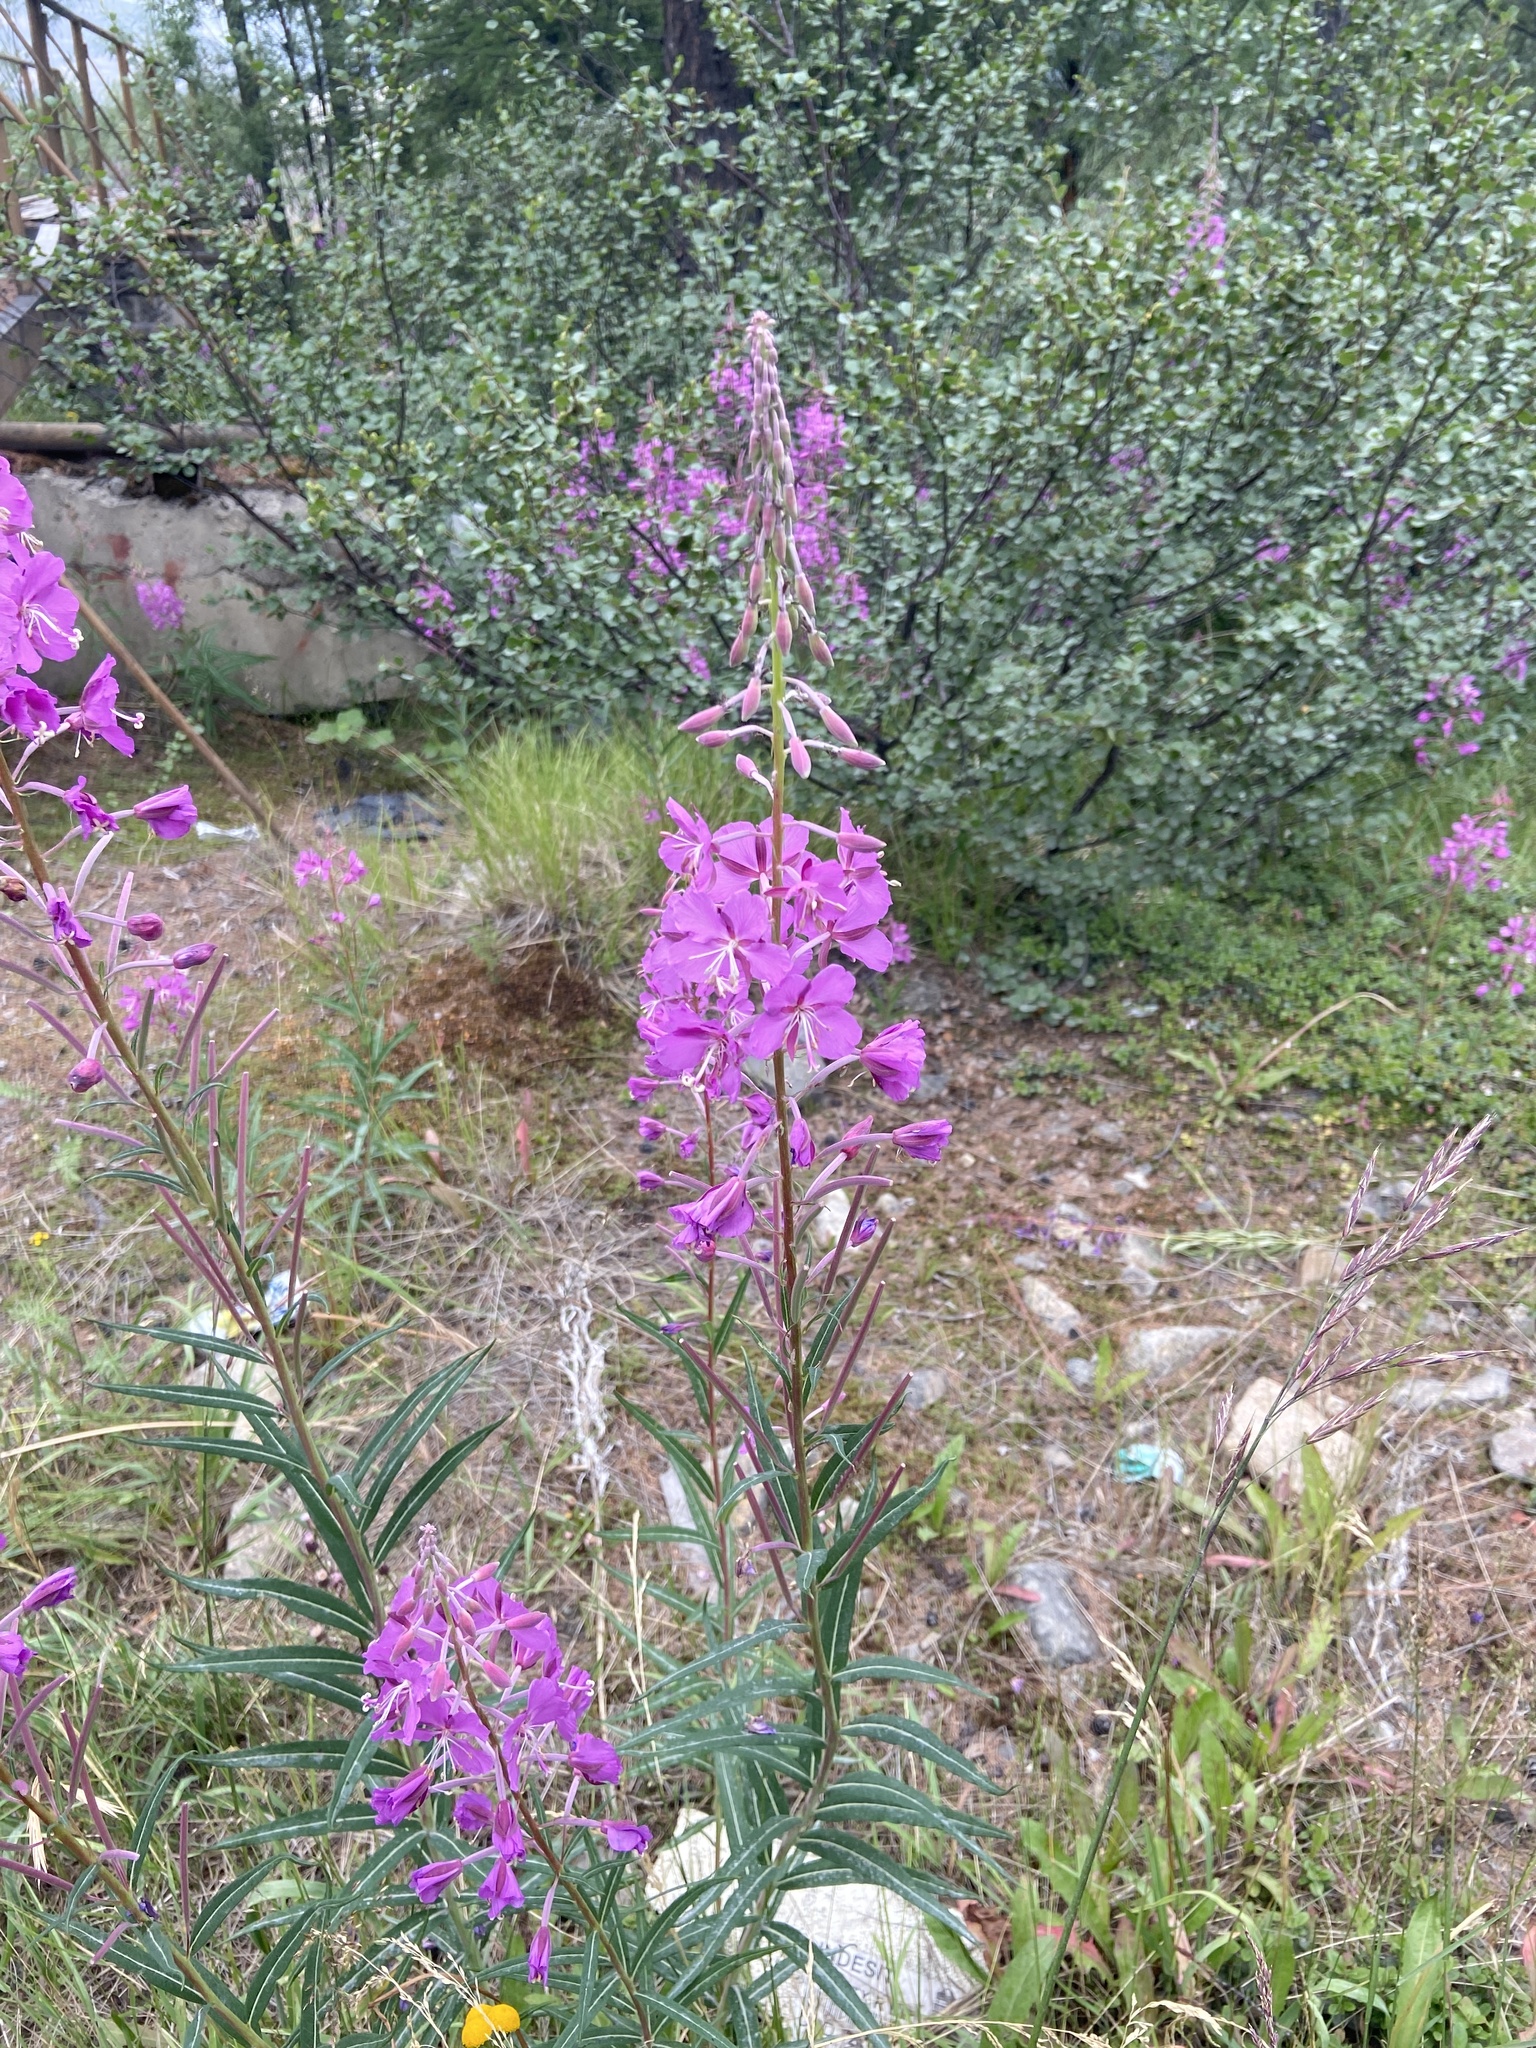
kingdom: Plantae
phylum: Tracheophyta
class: Magnoliopsida
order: Myrtales
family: Onagraceae
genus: Chamaenerion
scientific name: Chamaenerion angustifolium
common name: Fireweed
